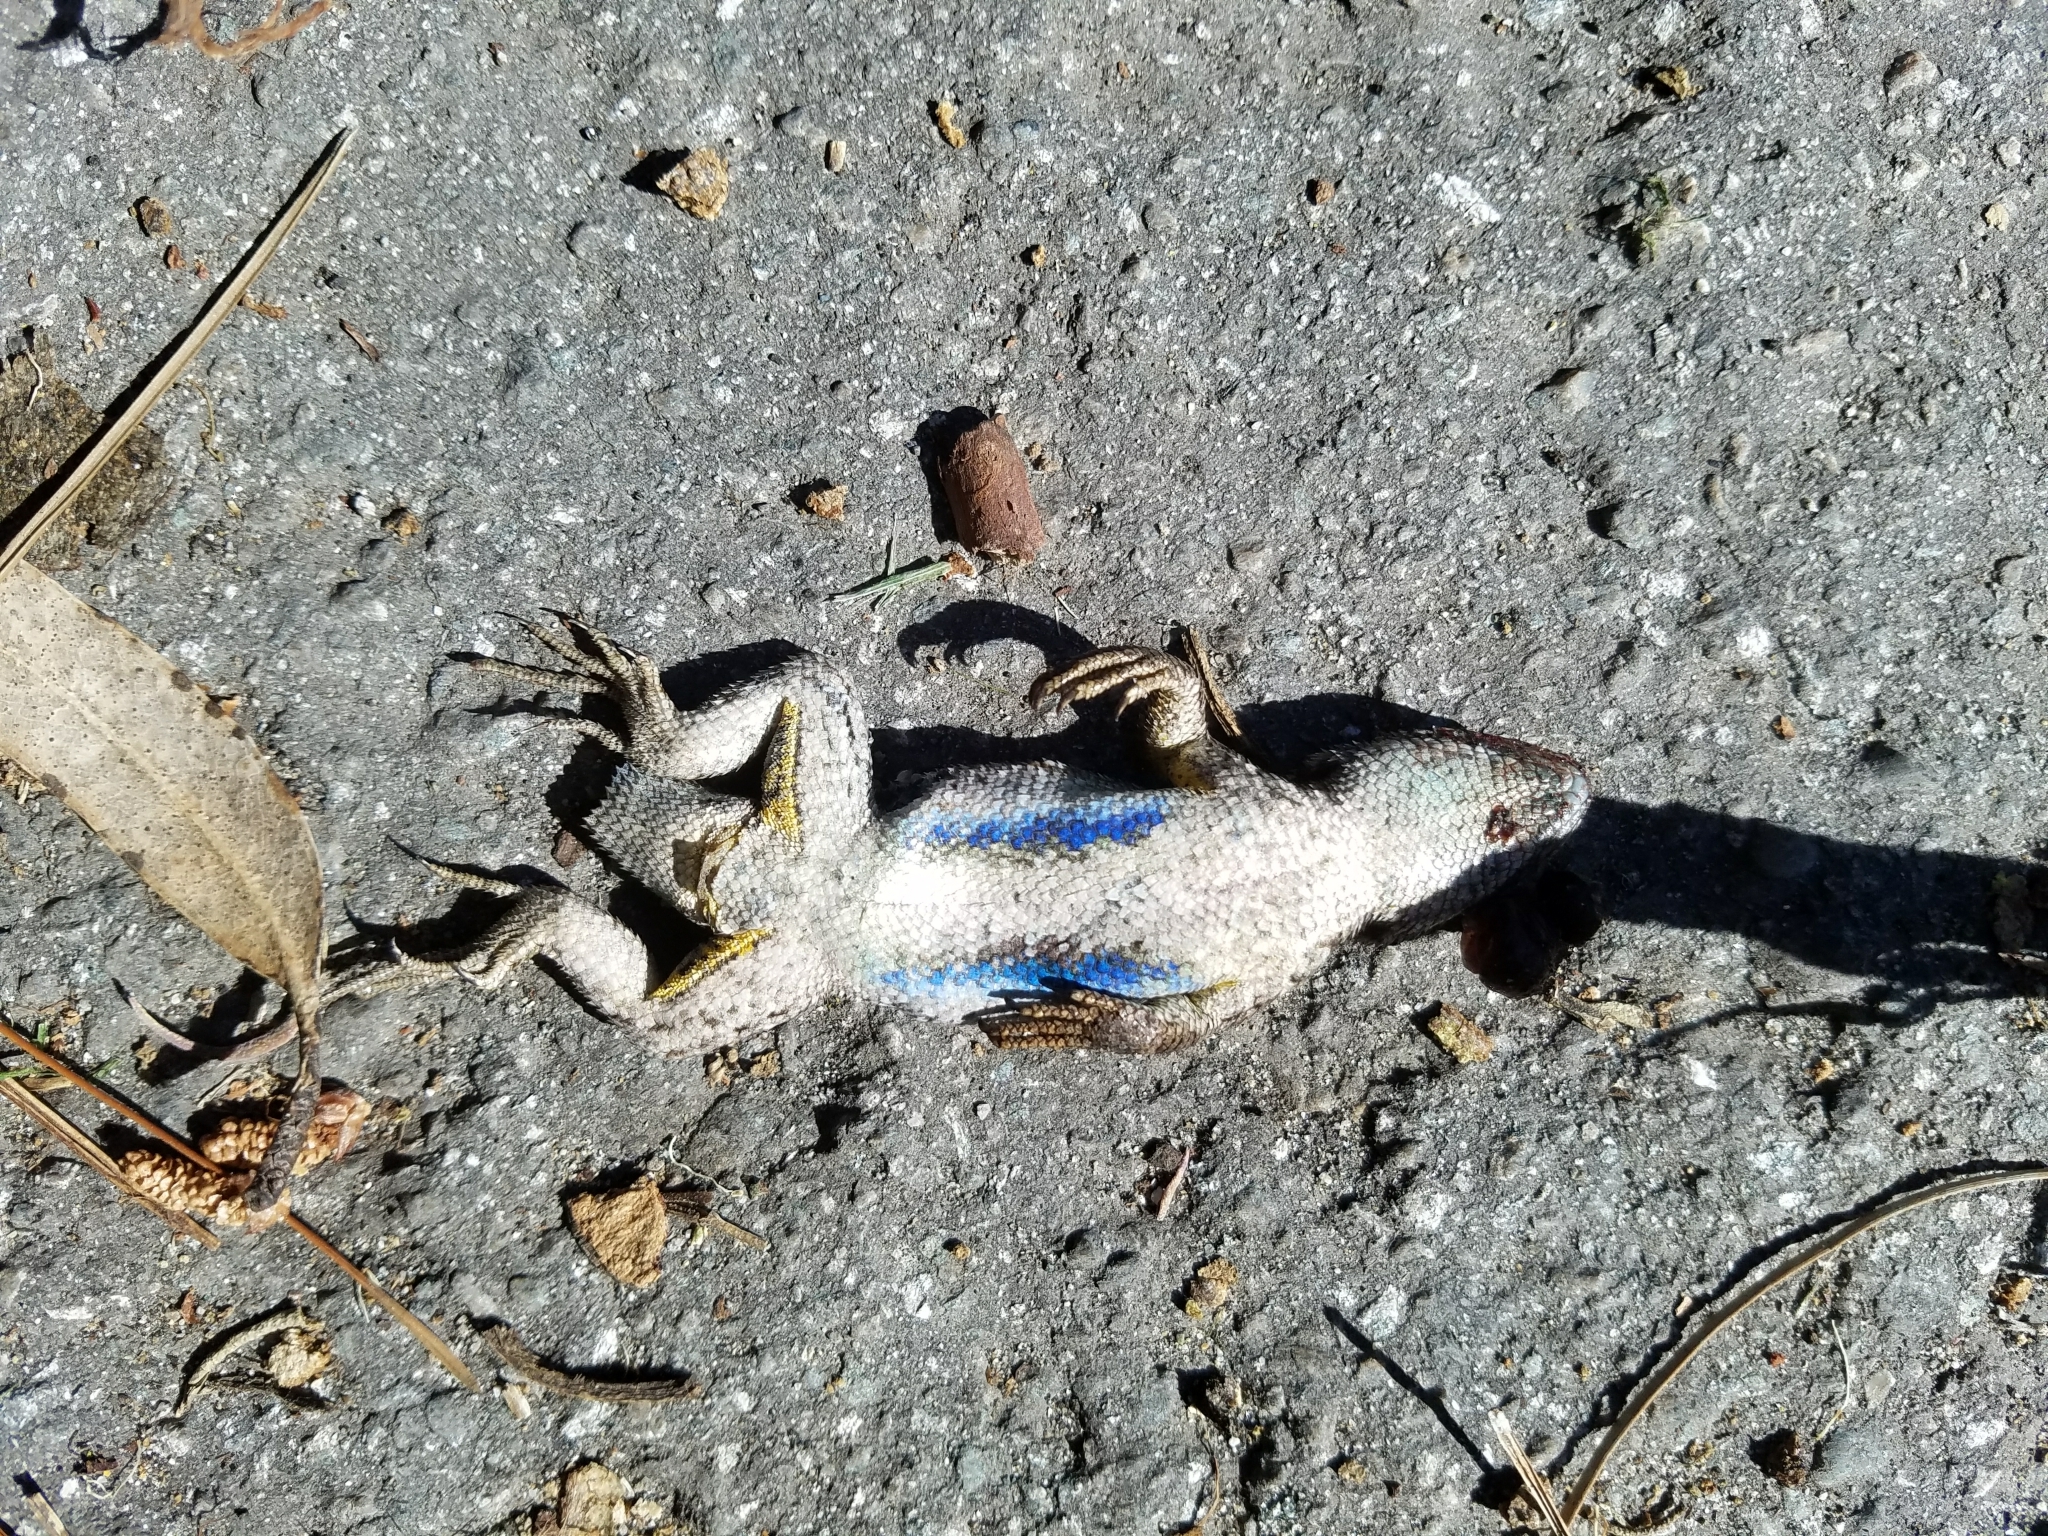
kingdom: Animalia
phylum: Chordata
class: Squamata
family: Phrynosomatidae
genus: Sceloporus
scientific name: Sceloporus occidentalis
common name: Western fence lizard
